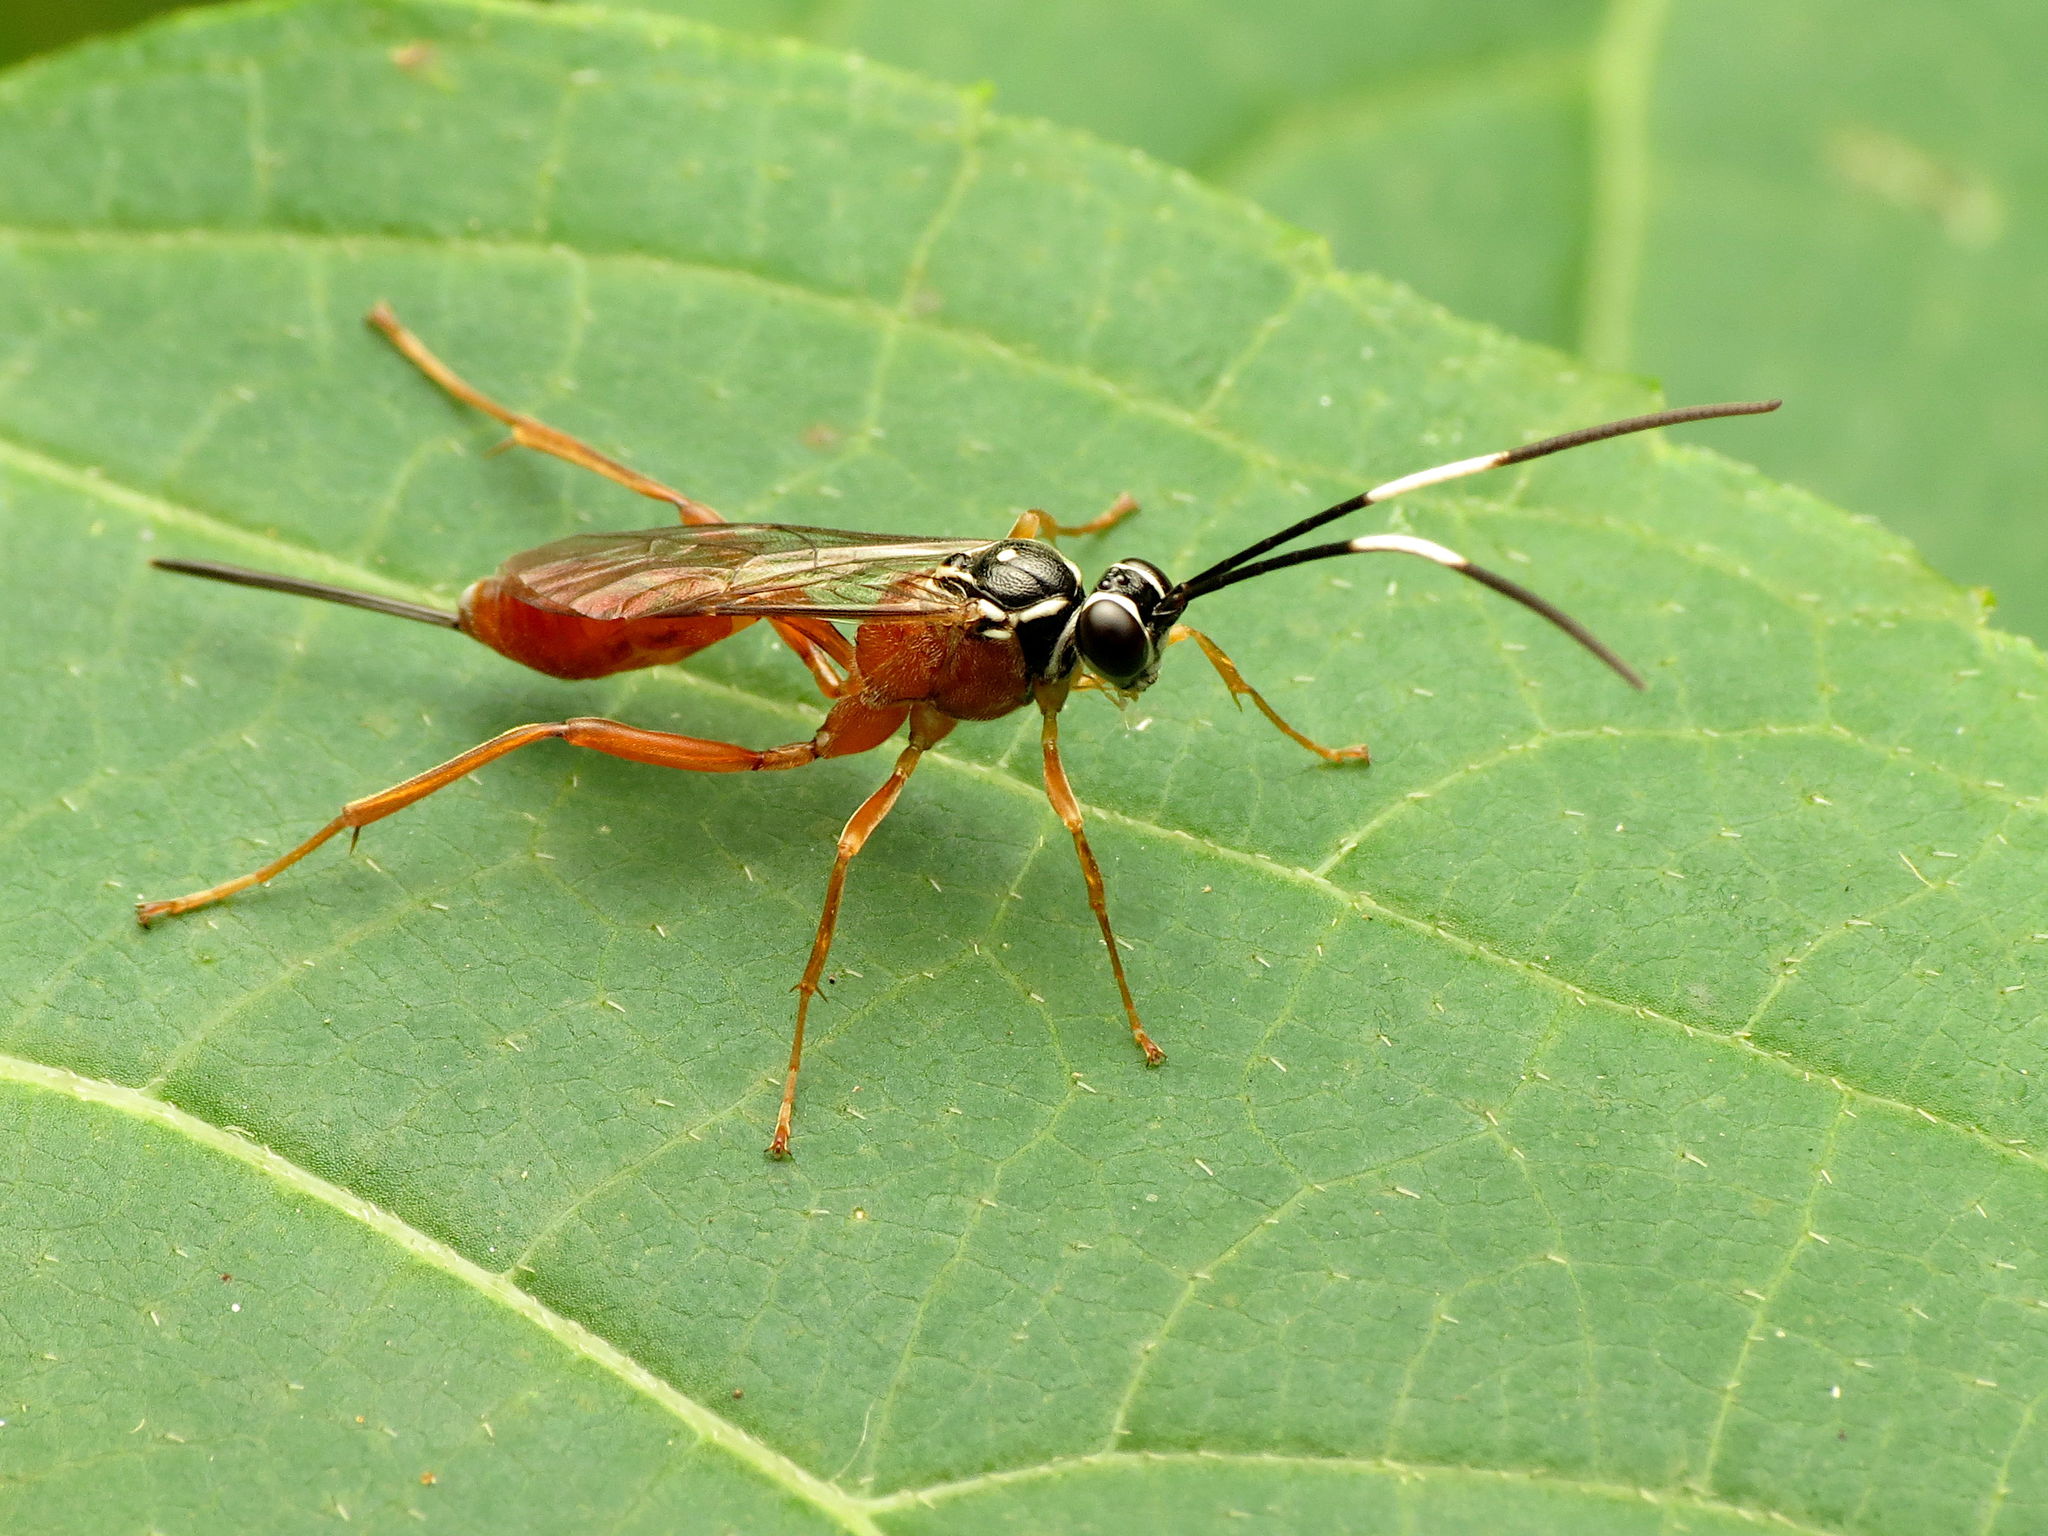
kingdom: Animalia
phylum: Arthropoda
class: Insecta
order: Hymenoptera
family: Ichneumonidae
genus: Mesostenus
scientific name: Mesostenus thoracicus
